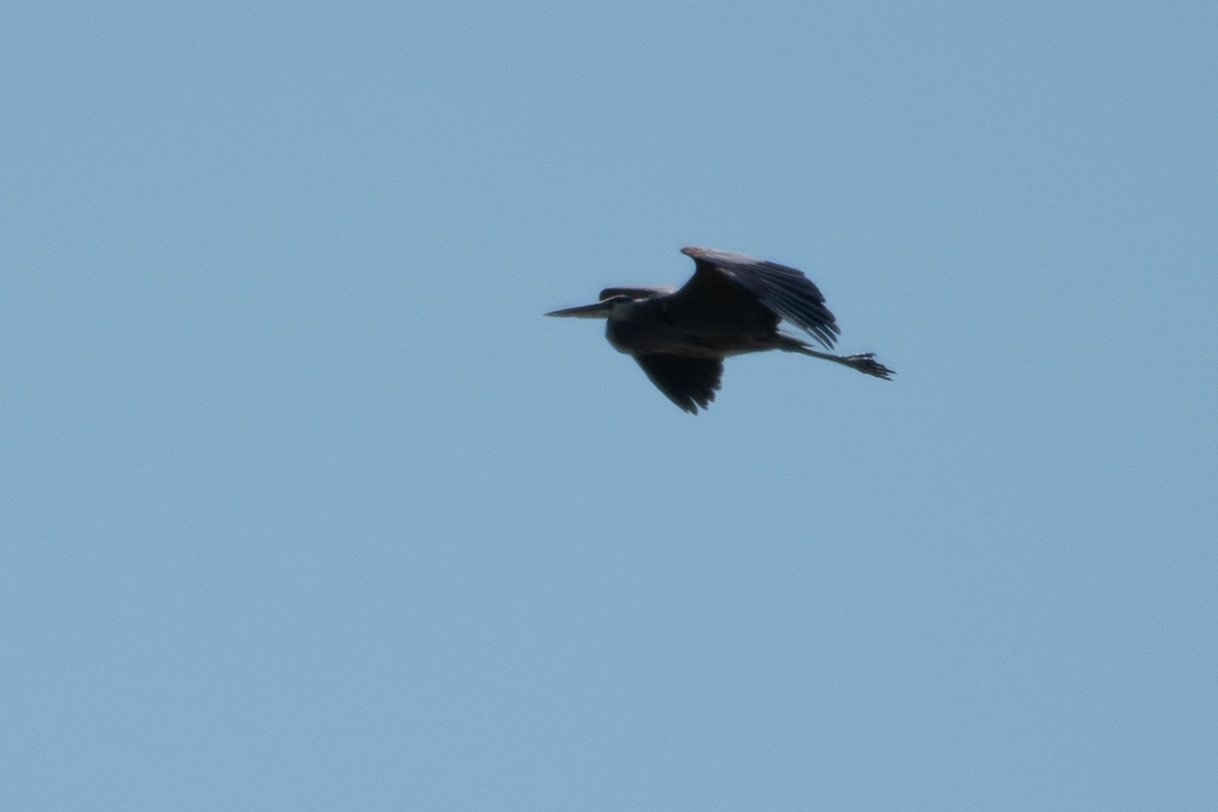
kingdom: Animalia
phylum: Chordata
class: Aves
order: Pelecaniformes
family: Ardeidae
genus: Ardea
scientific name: Ardea herodias
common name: Great blue heron
